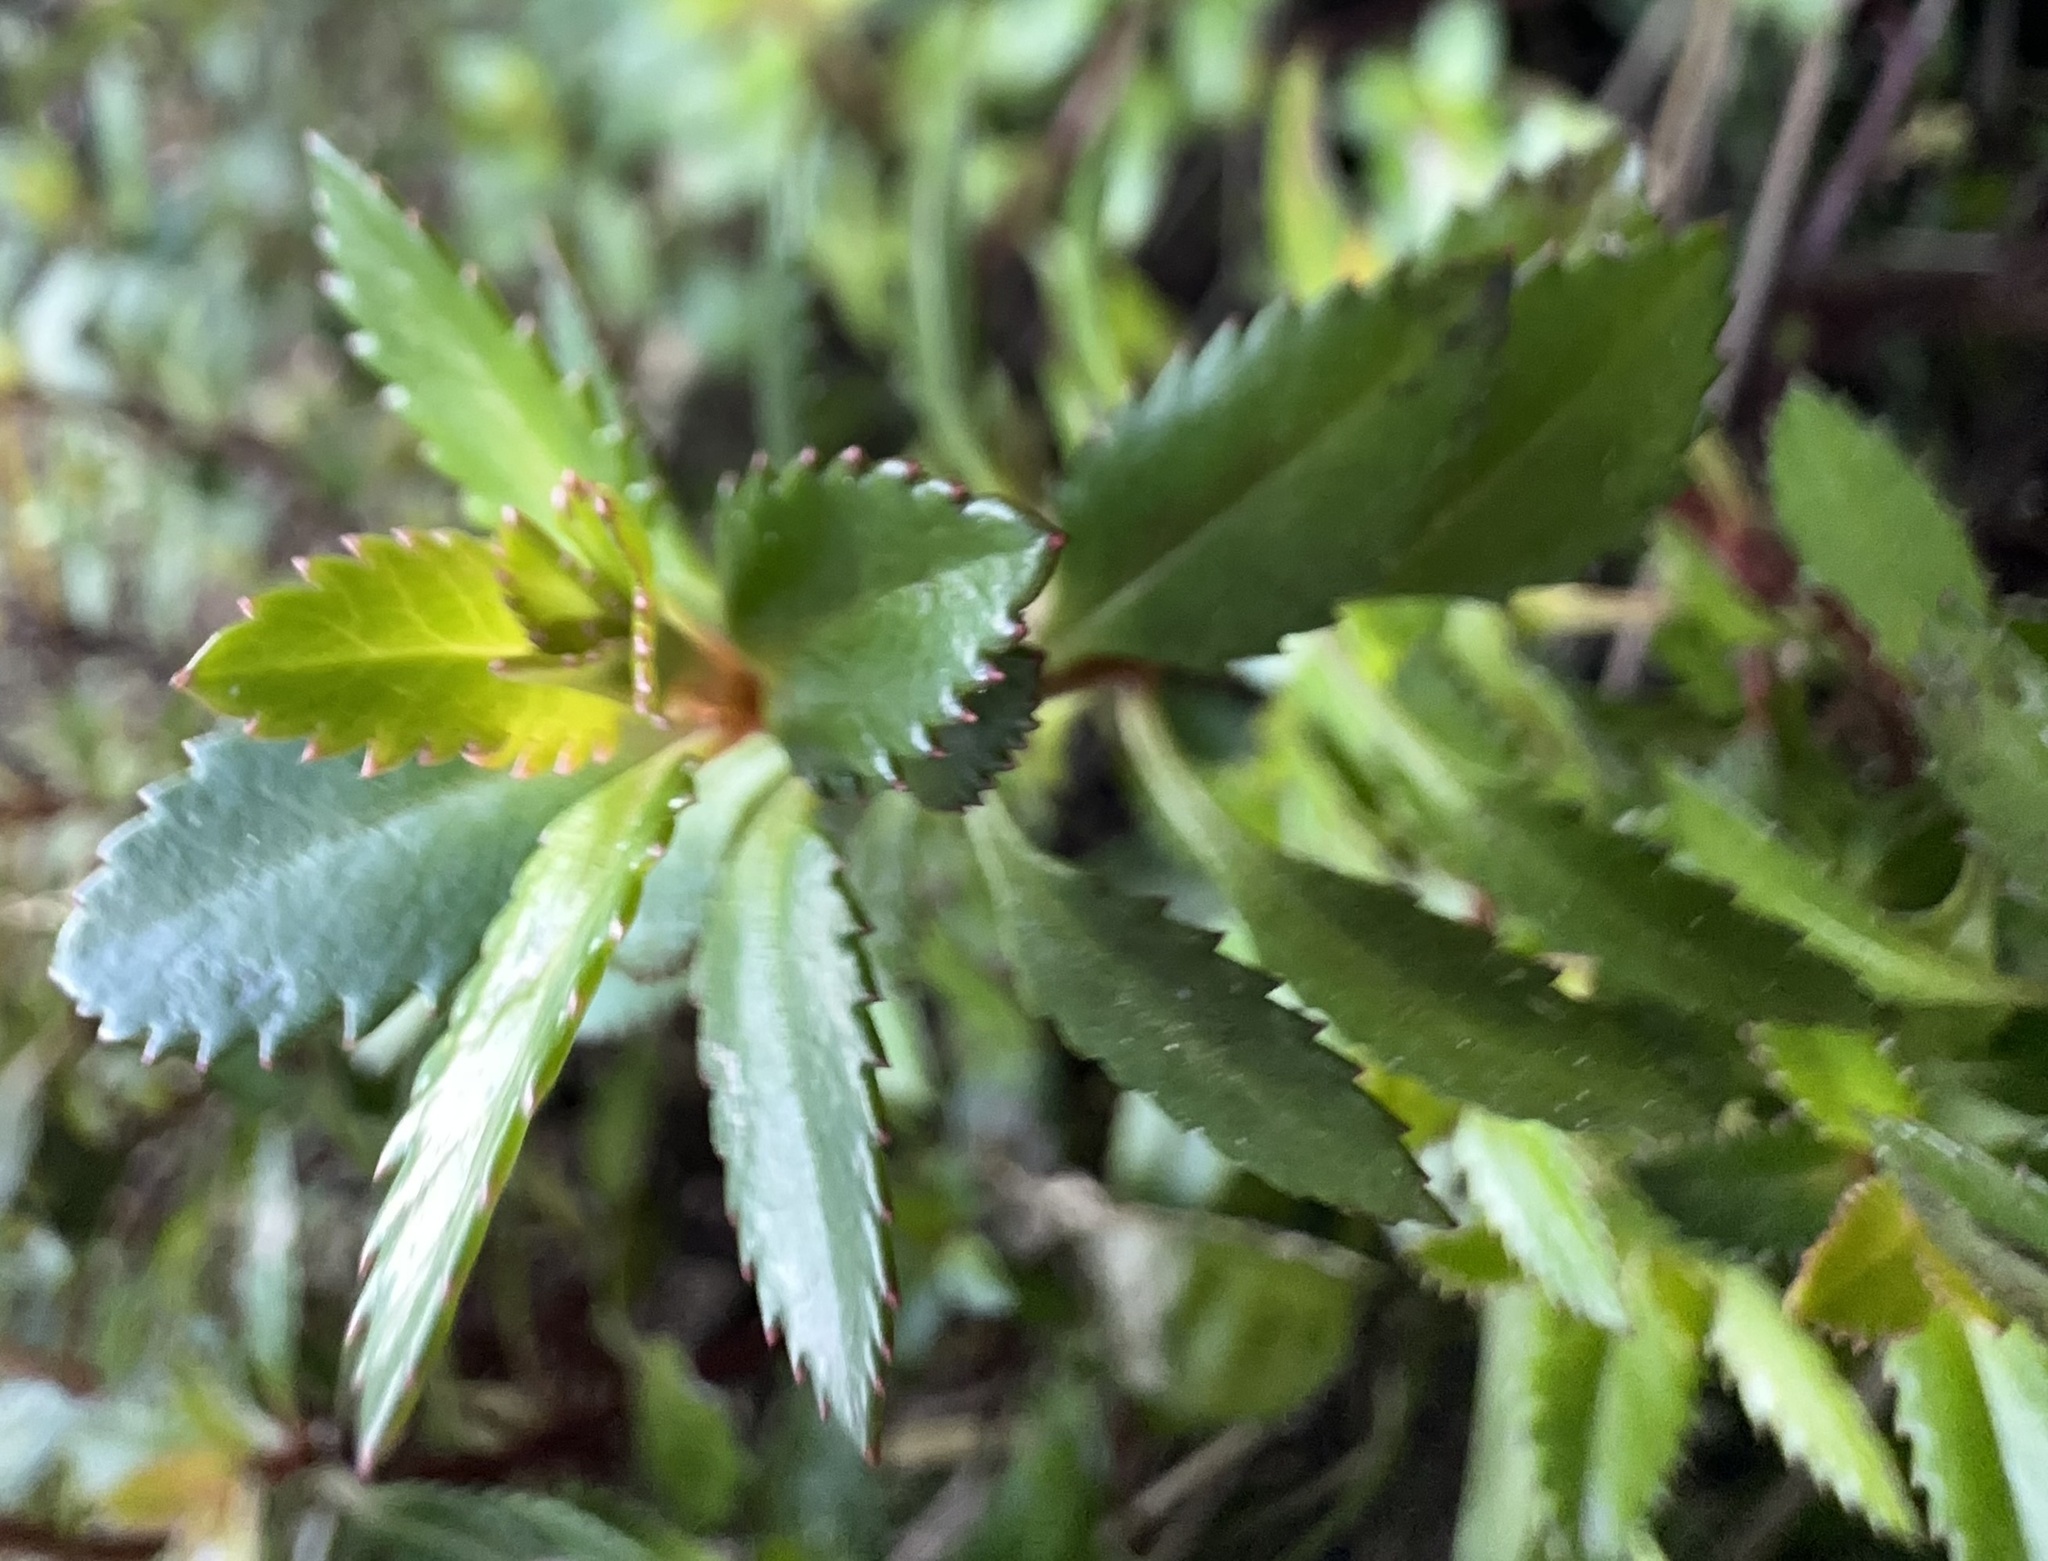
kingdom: Plantae
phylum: Tracheophyta
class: Magnoliopsida
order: Saxifragales
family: Haloragaceae
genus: Haloragis
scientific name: Haloragis erecta
